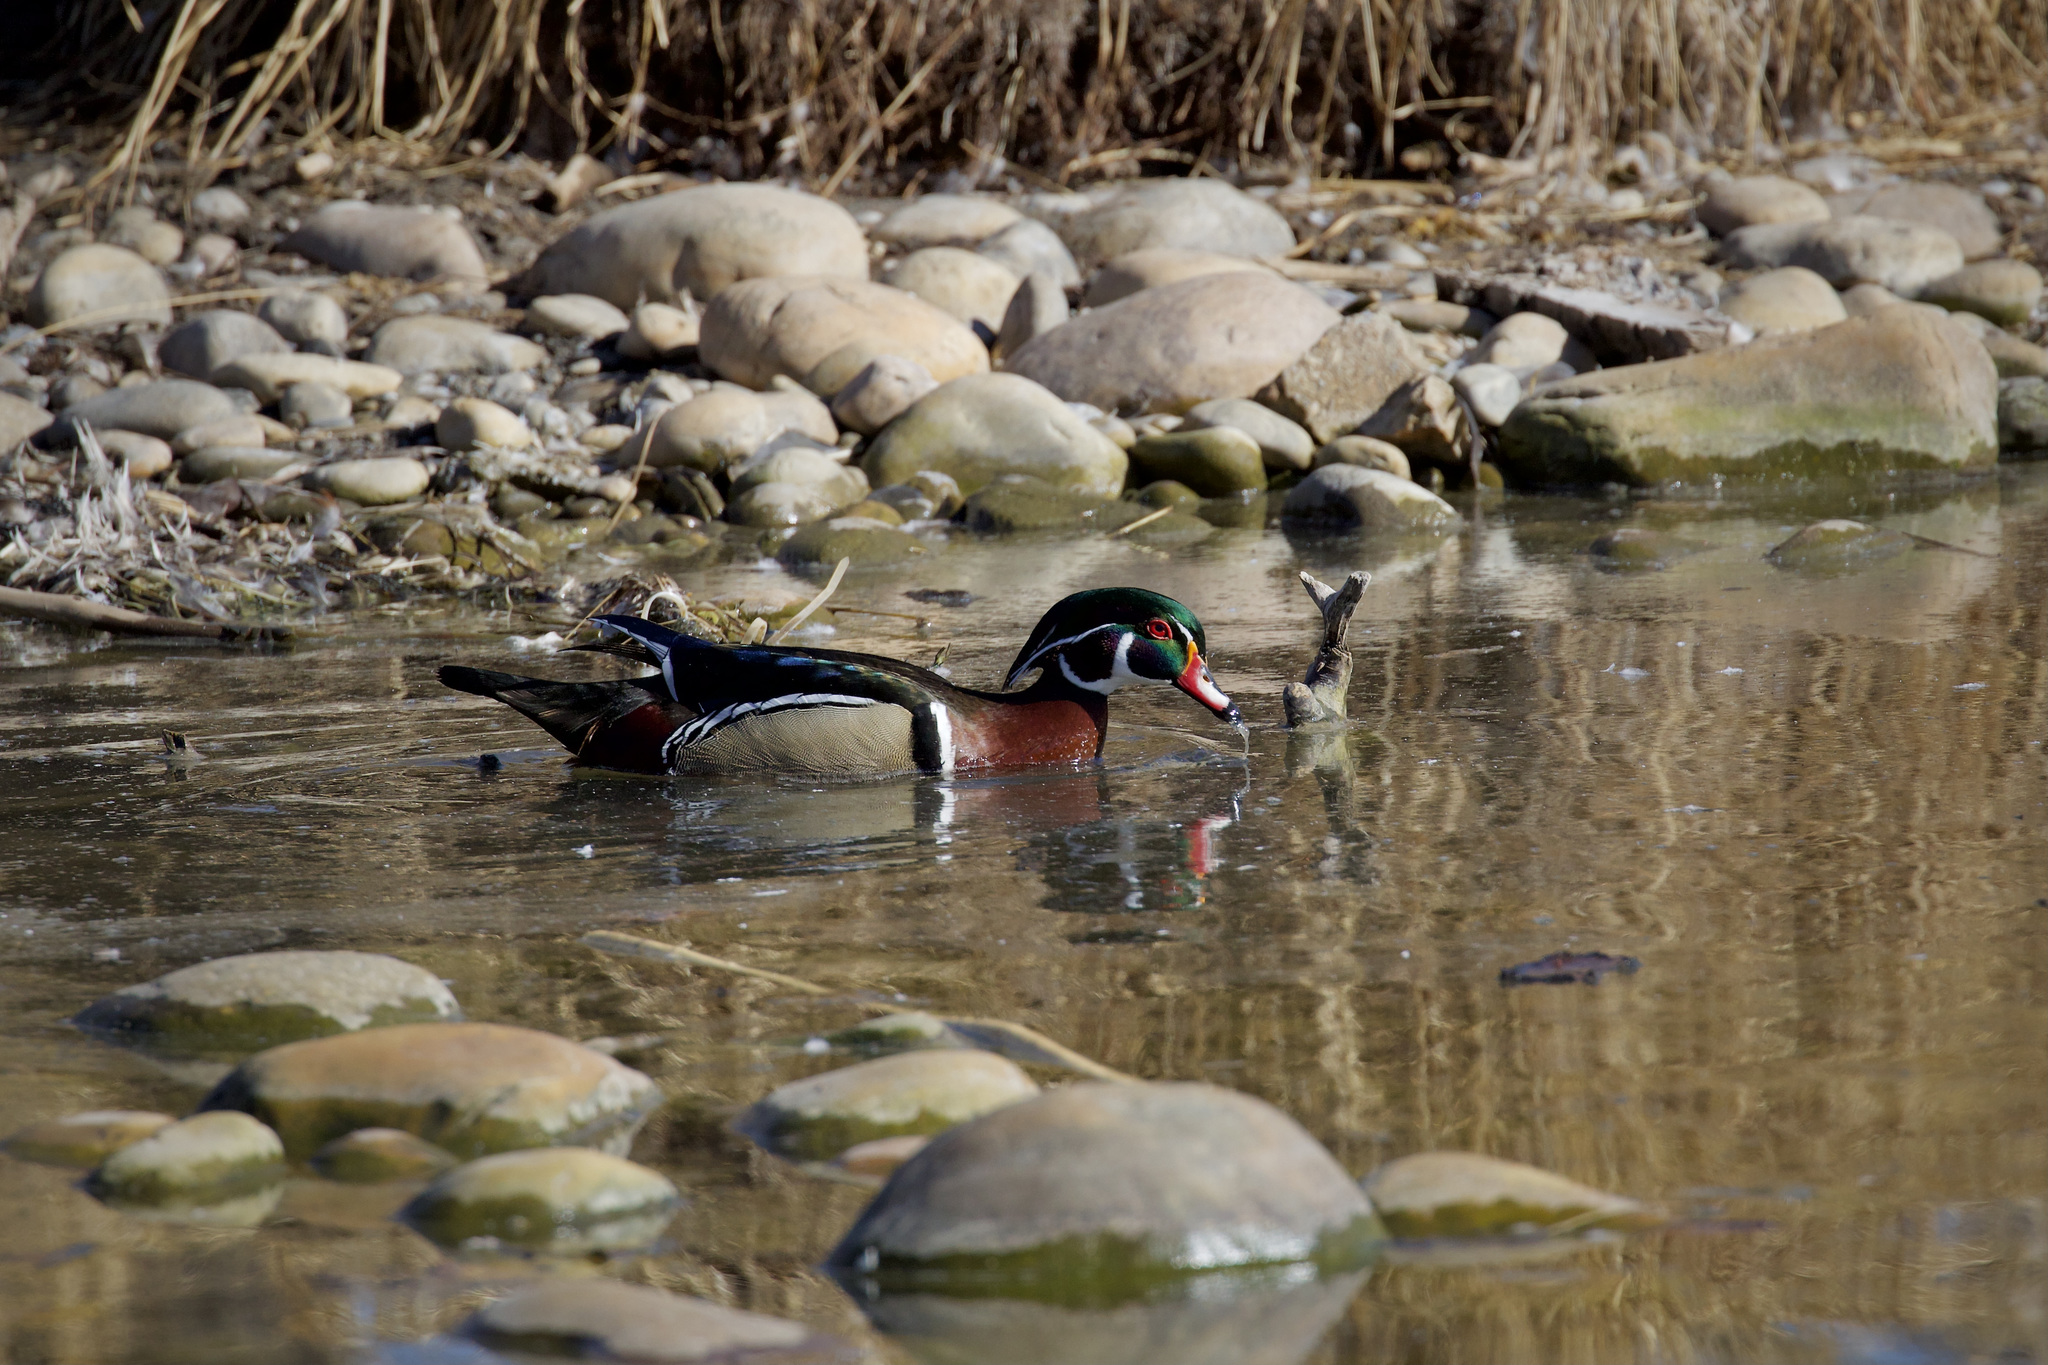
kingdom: Animalia
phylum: Chordata
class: Aves
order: Anseriformes
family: Anatidae
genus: Aix
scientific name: Aix sponsa
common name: Wood duck
